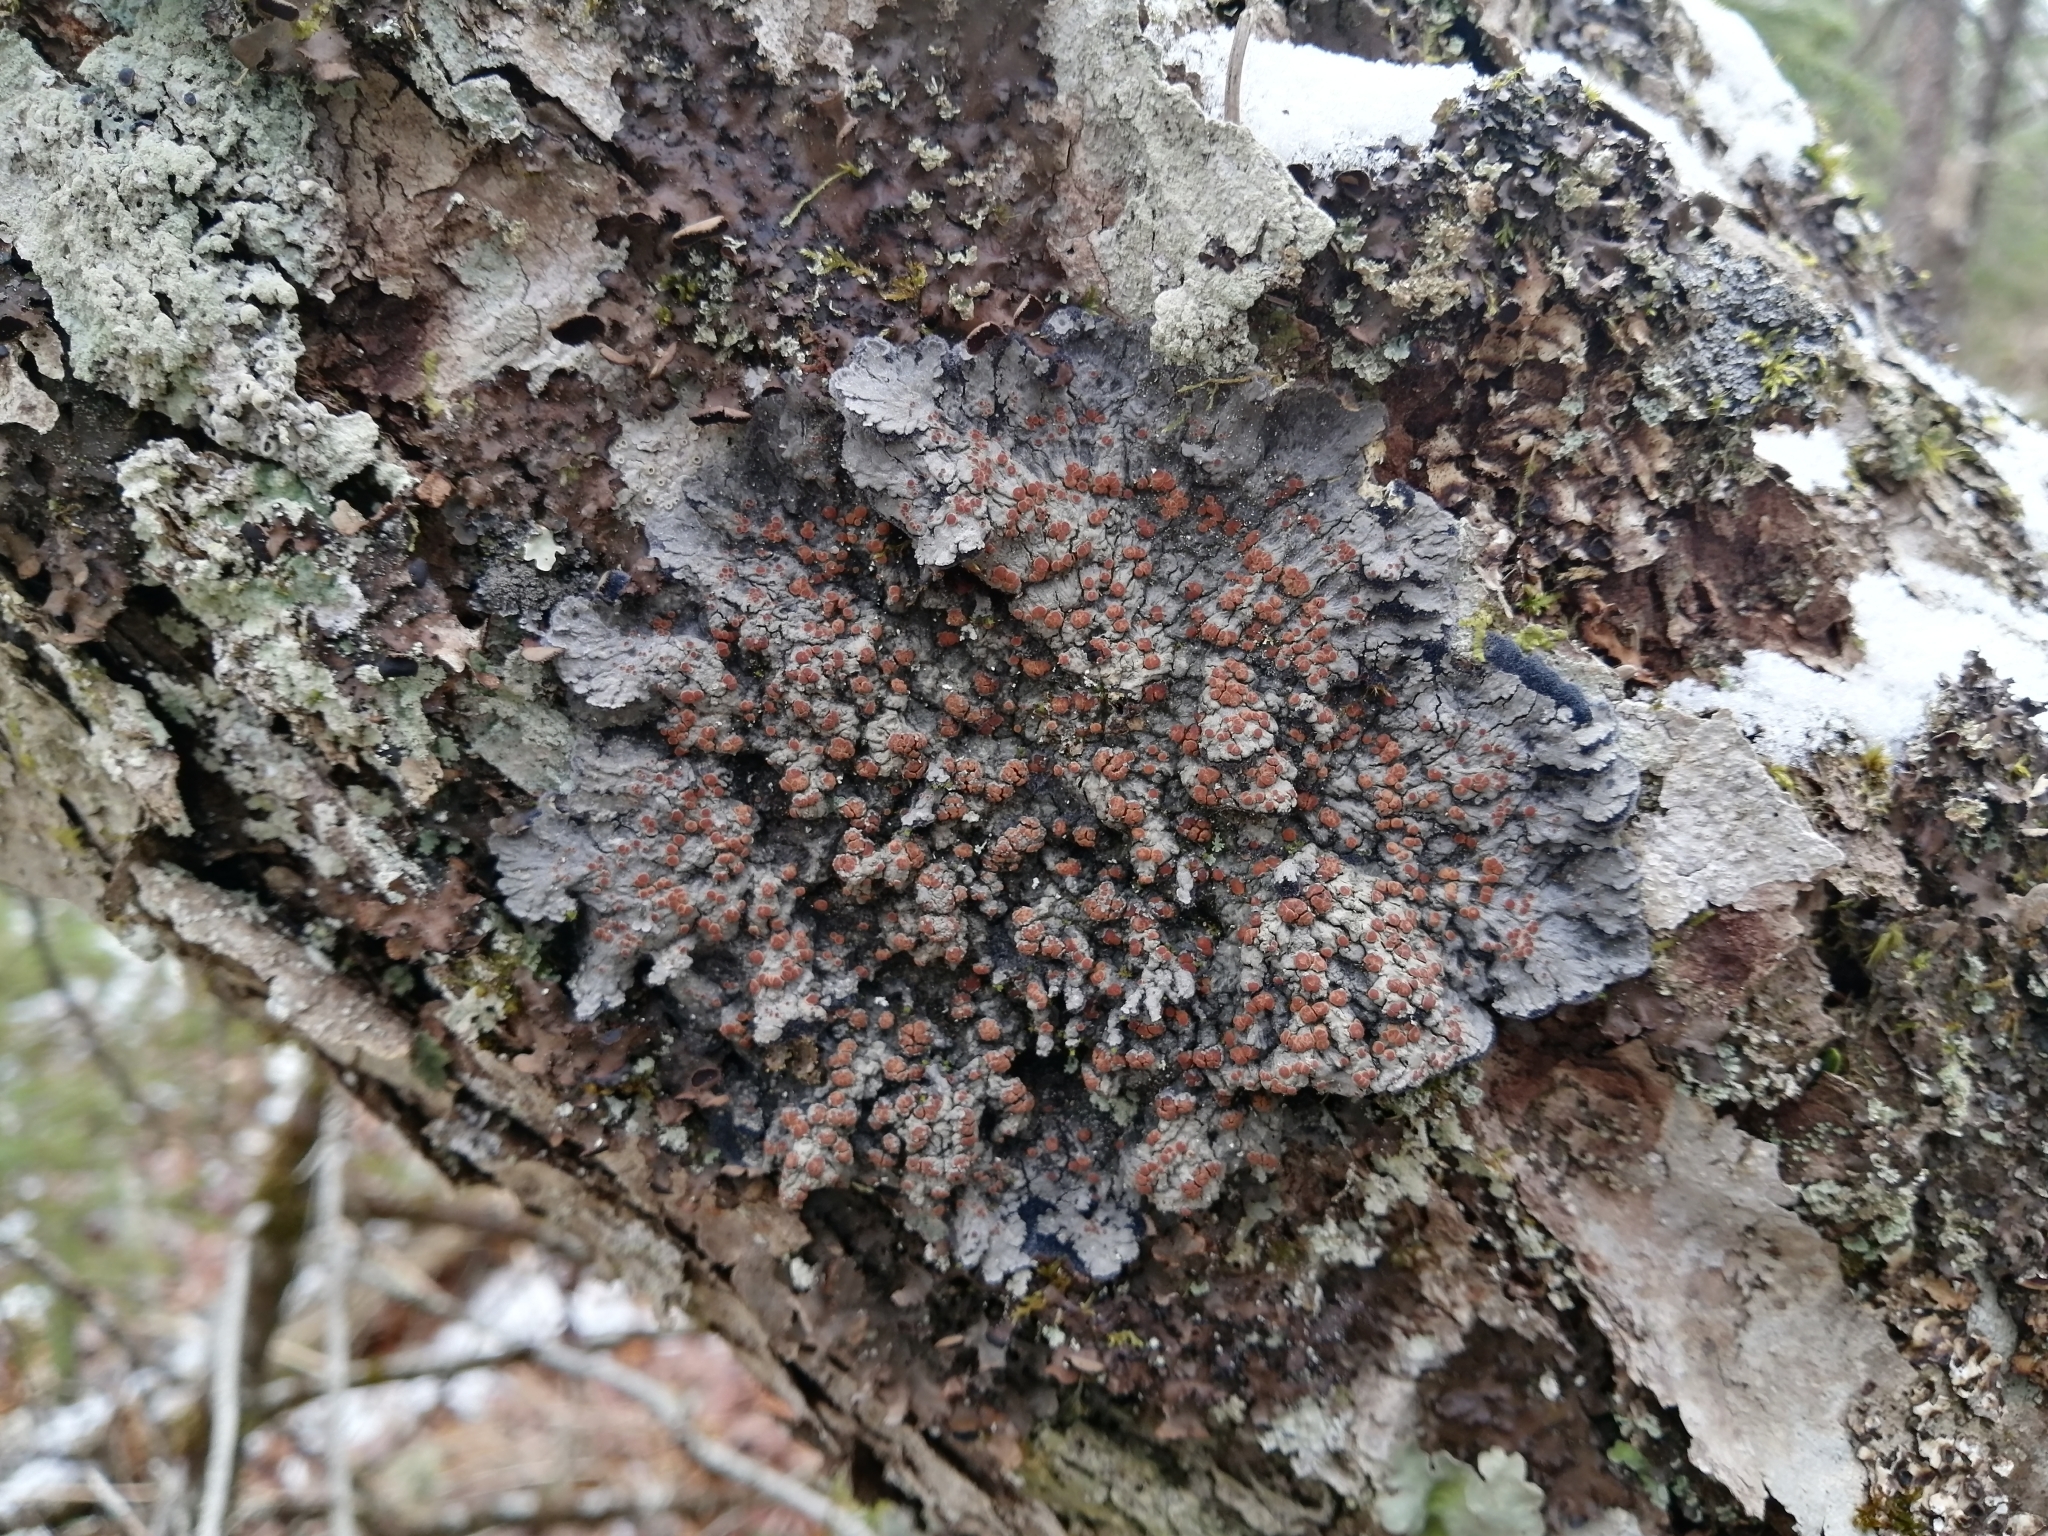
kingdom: Fungi
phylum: Ascomycota
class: Lecanoromycetes
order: Peltigerales
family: Pannariaceae
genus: Pectenia
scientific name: Pectenia plumbea
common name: Bladder stalks
